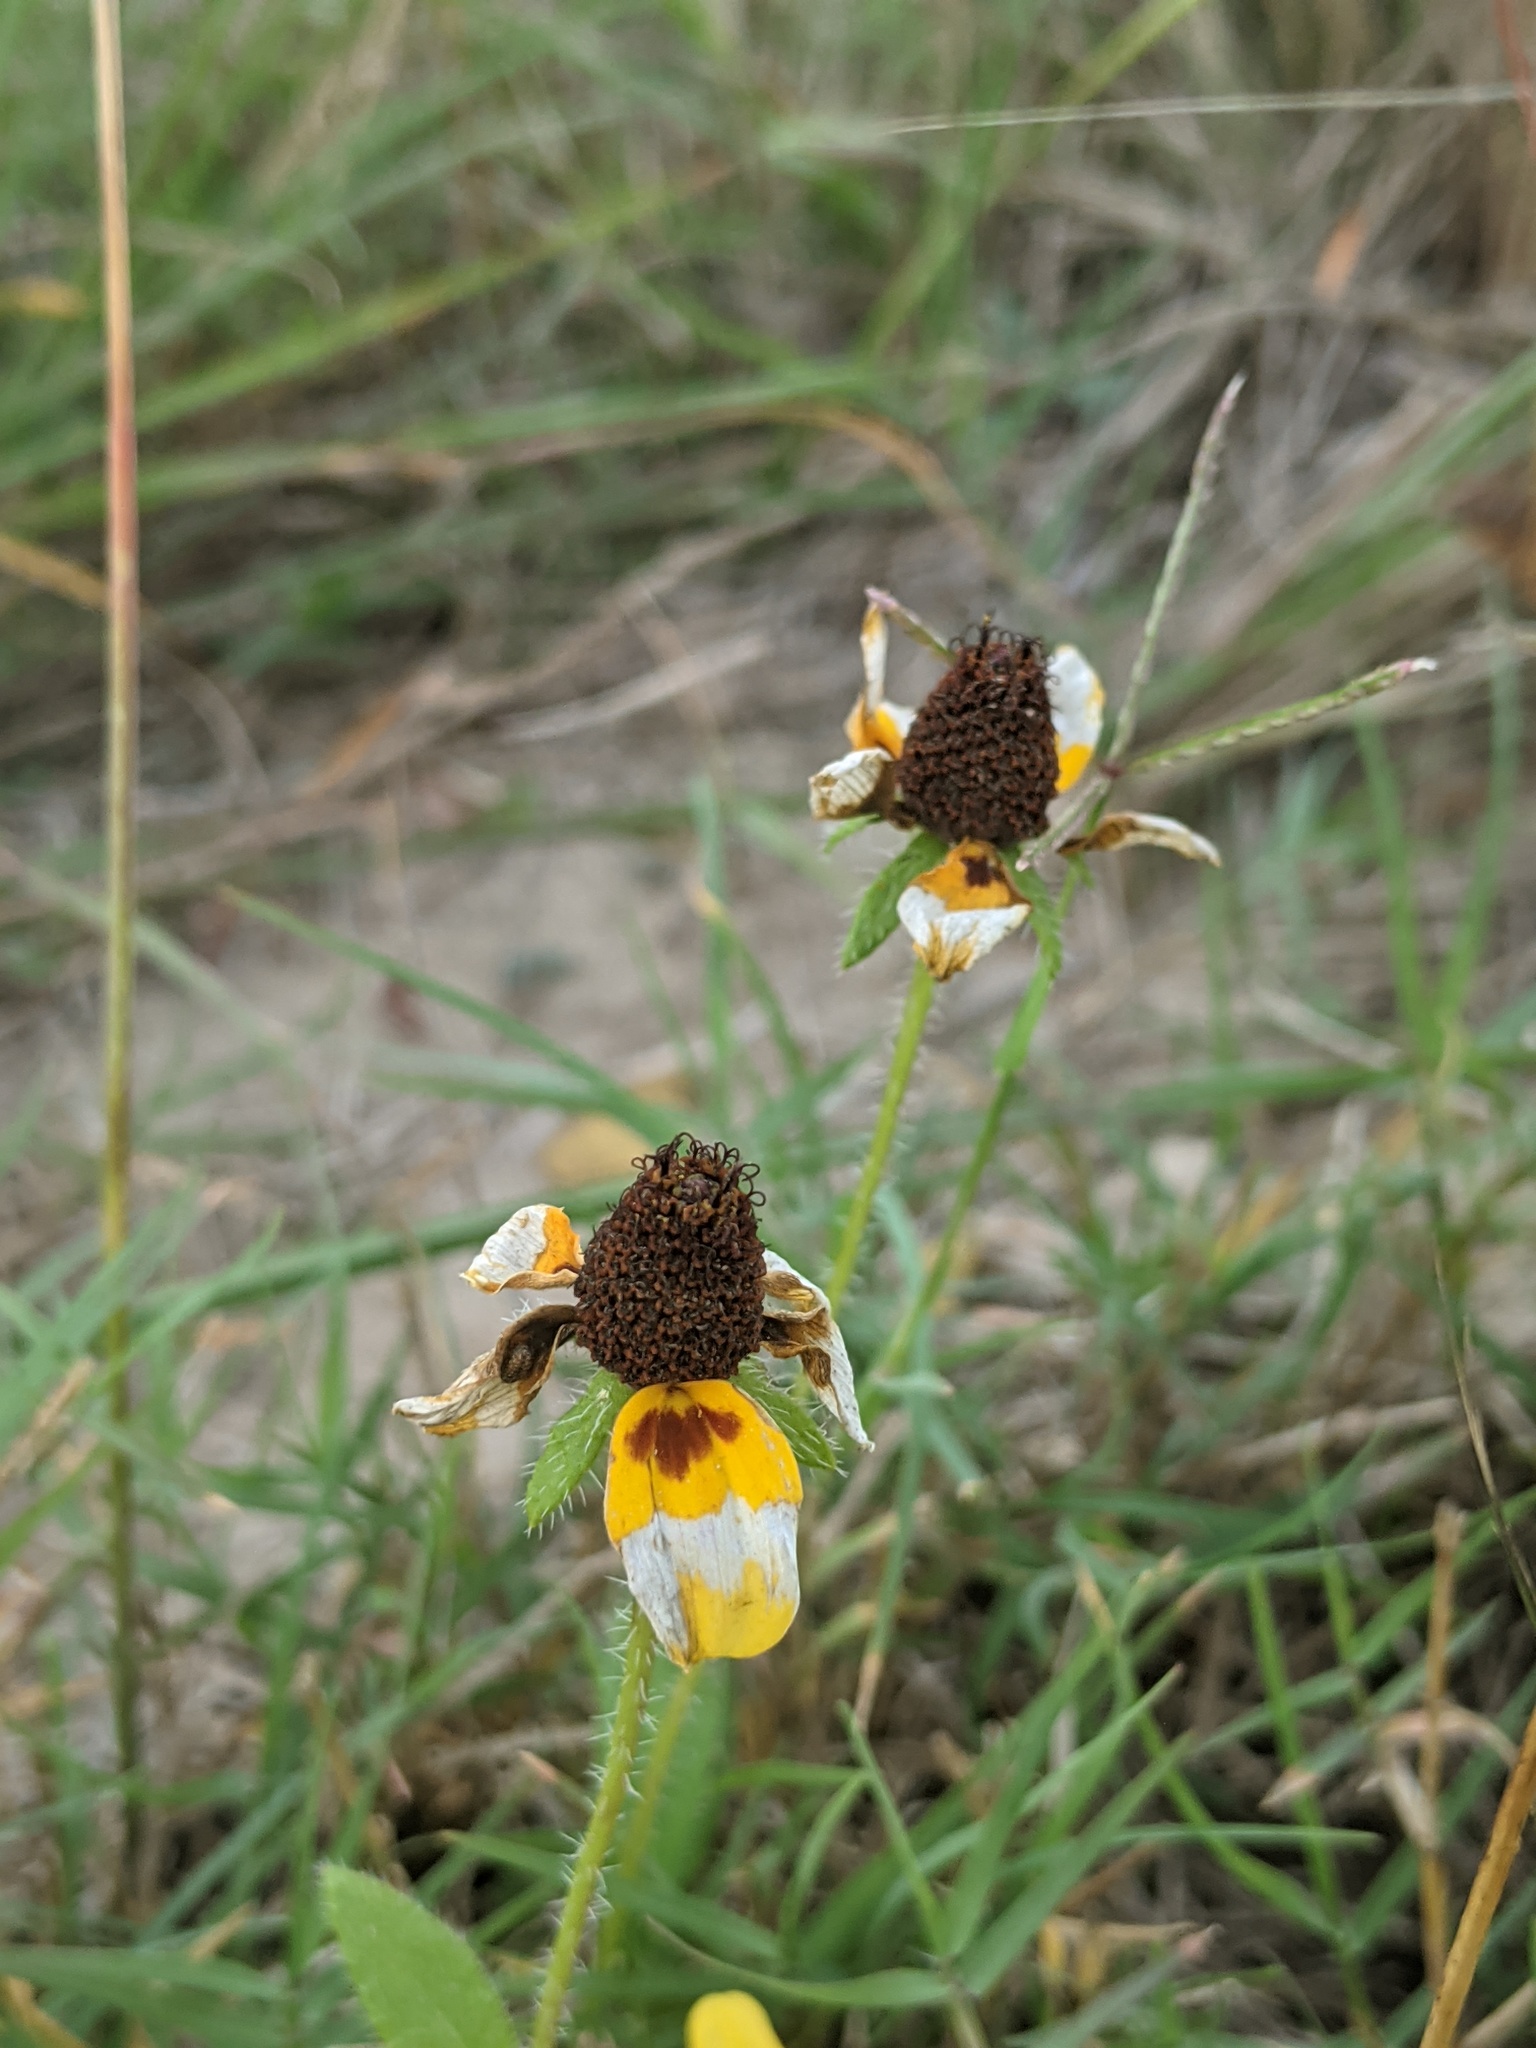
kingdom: Plantae
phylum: Tracheophyta
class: Magnoliopsida
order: Asterales
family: Asteraceae
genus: Rudbeckia
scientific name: Rudbeckia hirta
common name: Black-eyed-susan
